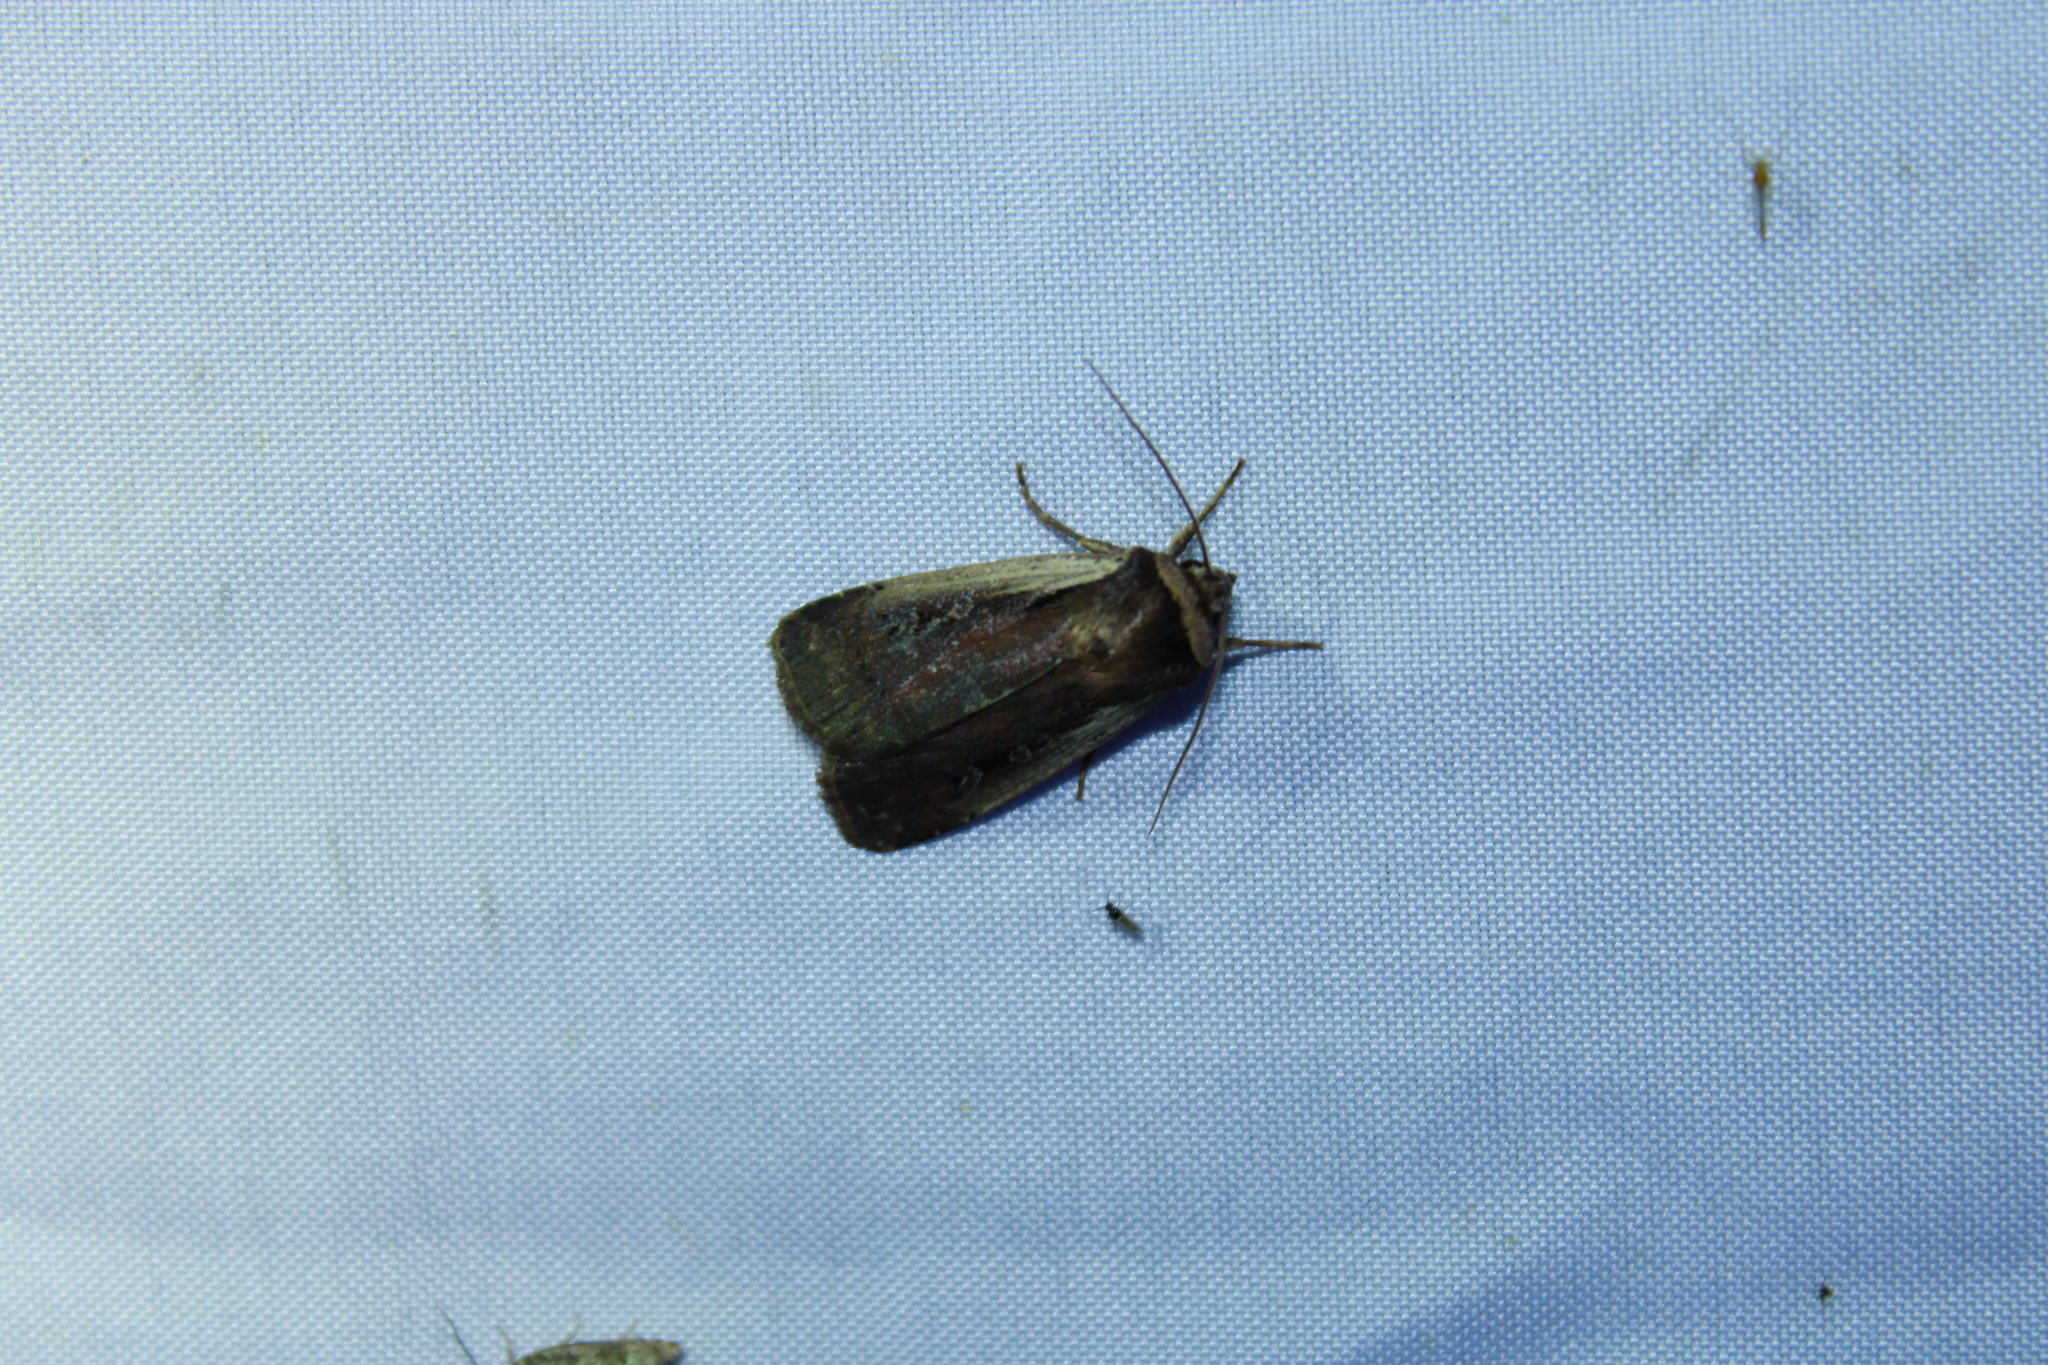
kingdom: Animalia
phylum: Arthropoda
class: Insecta
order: Lepidoptera
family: Noctuidae
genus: Ochropleura
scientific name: Ochropleura implecta
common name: Flame-shouldered dart
